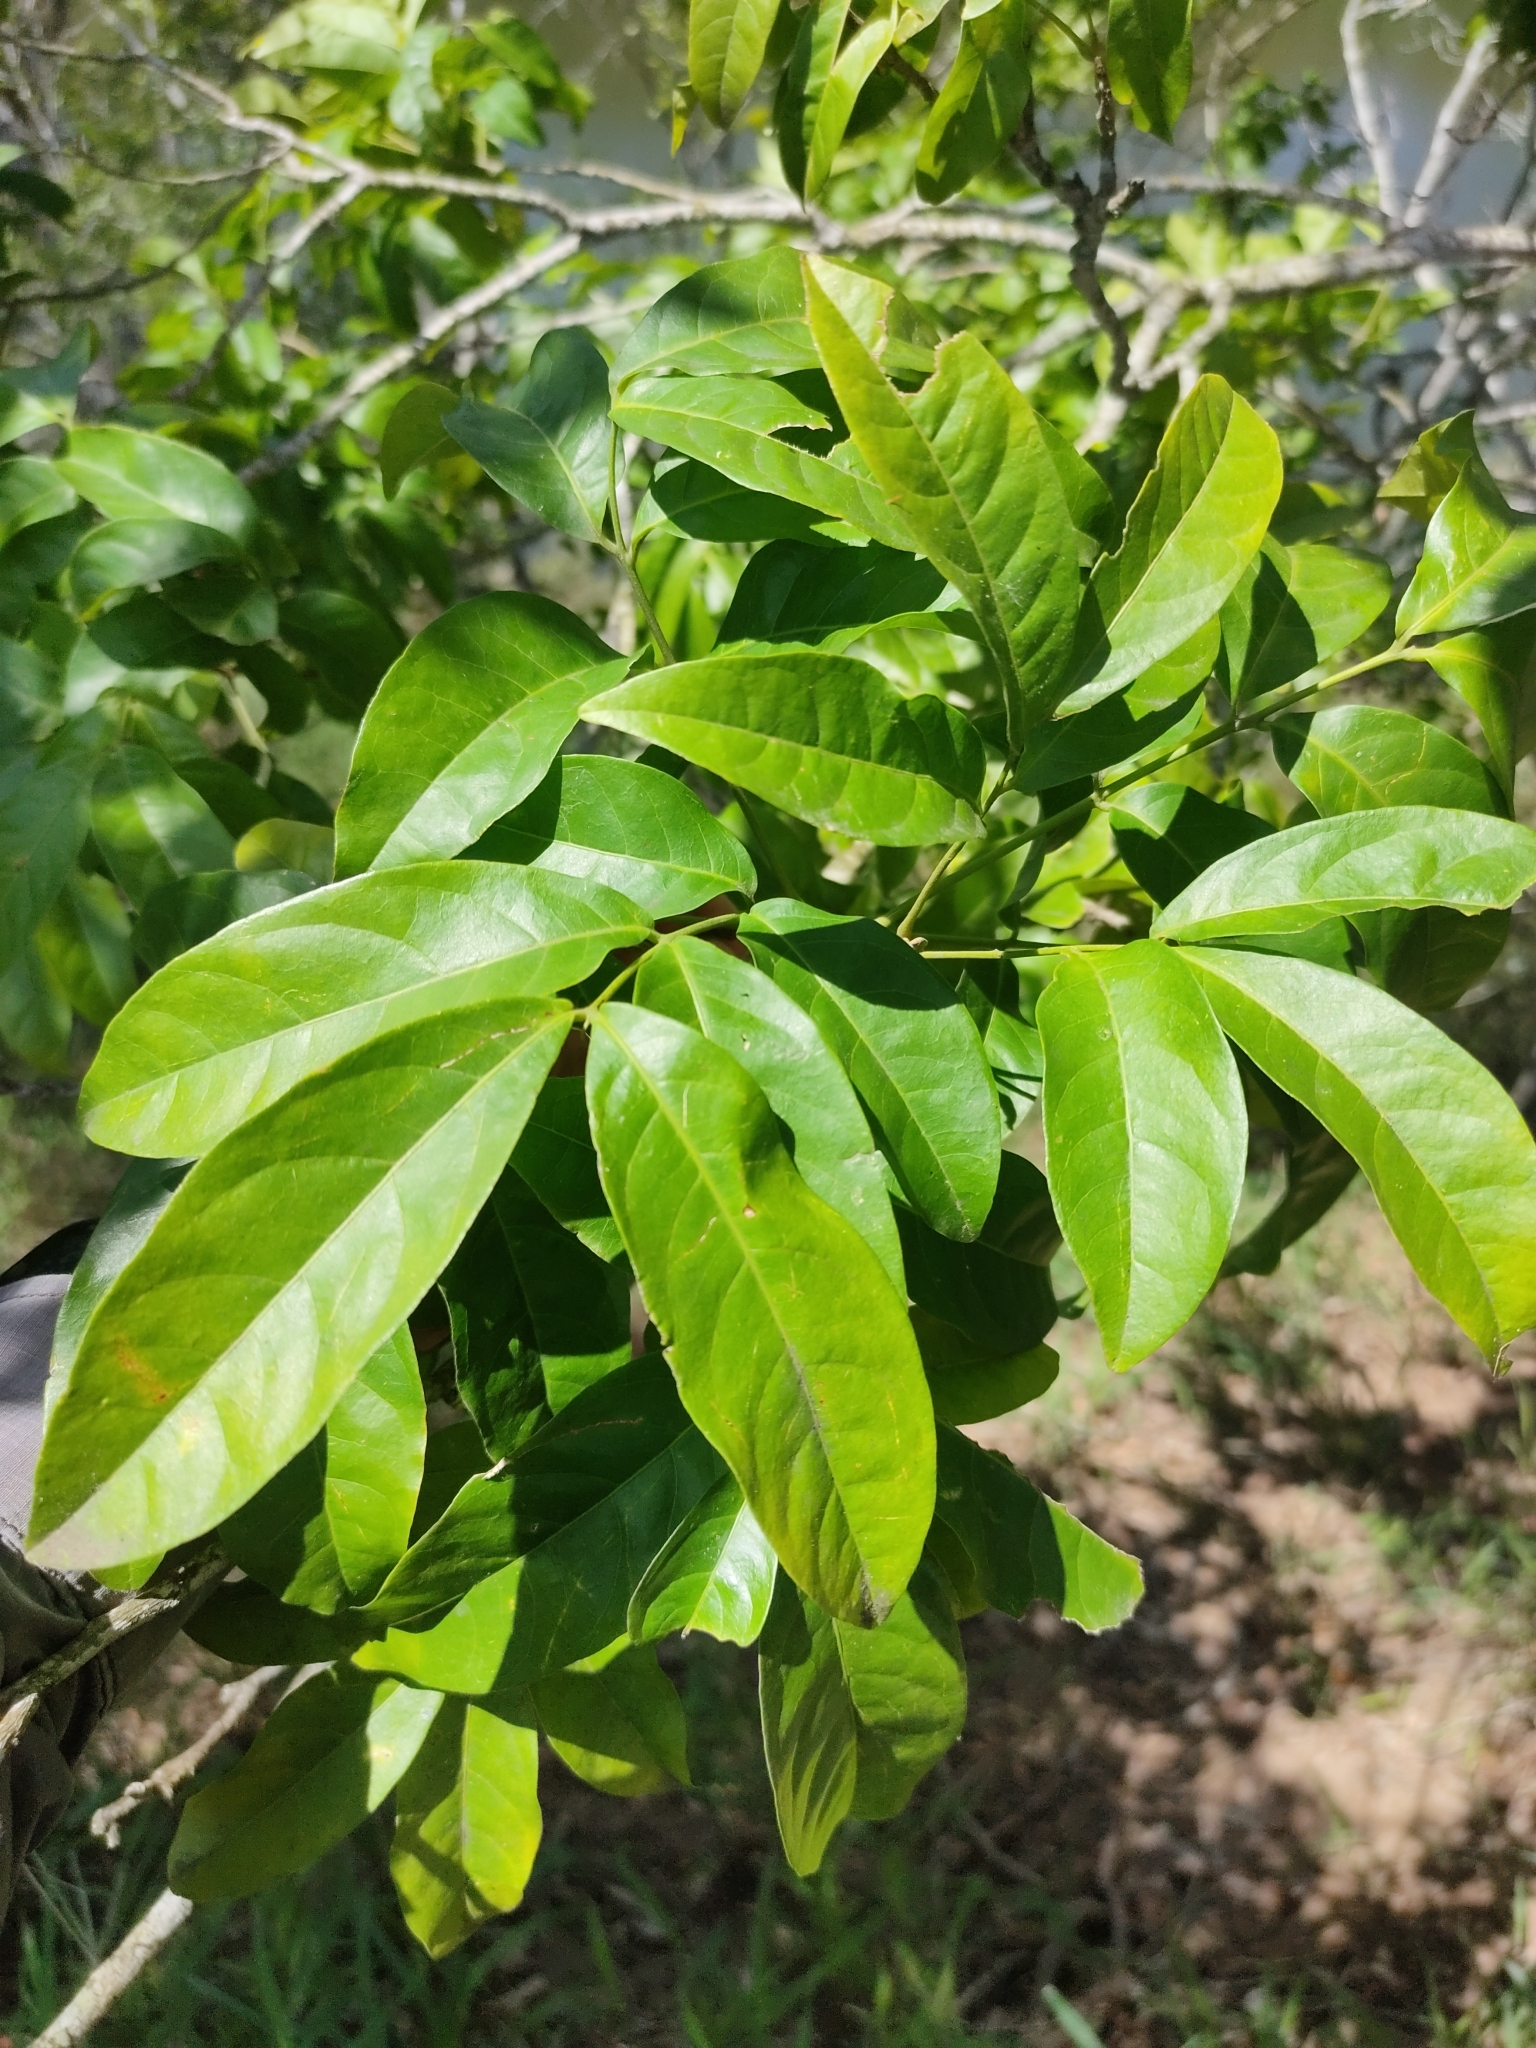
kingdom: Plantae
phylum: Tracheophyta
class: Magnoliopsida
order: Sapindales
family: Sapindaceae
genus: Harpullia
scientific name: Harpullia pendula
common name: Moreton bay tulipwood
